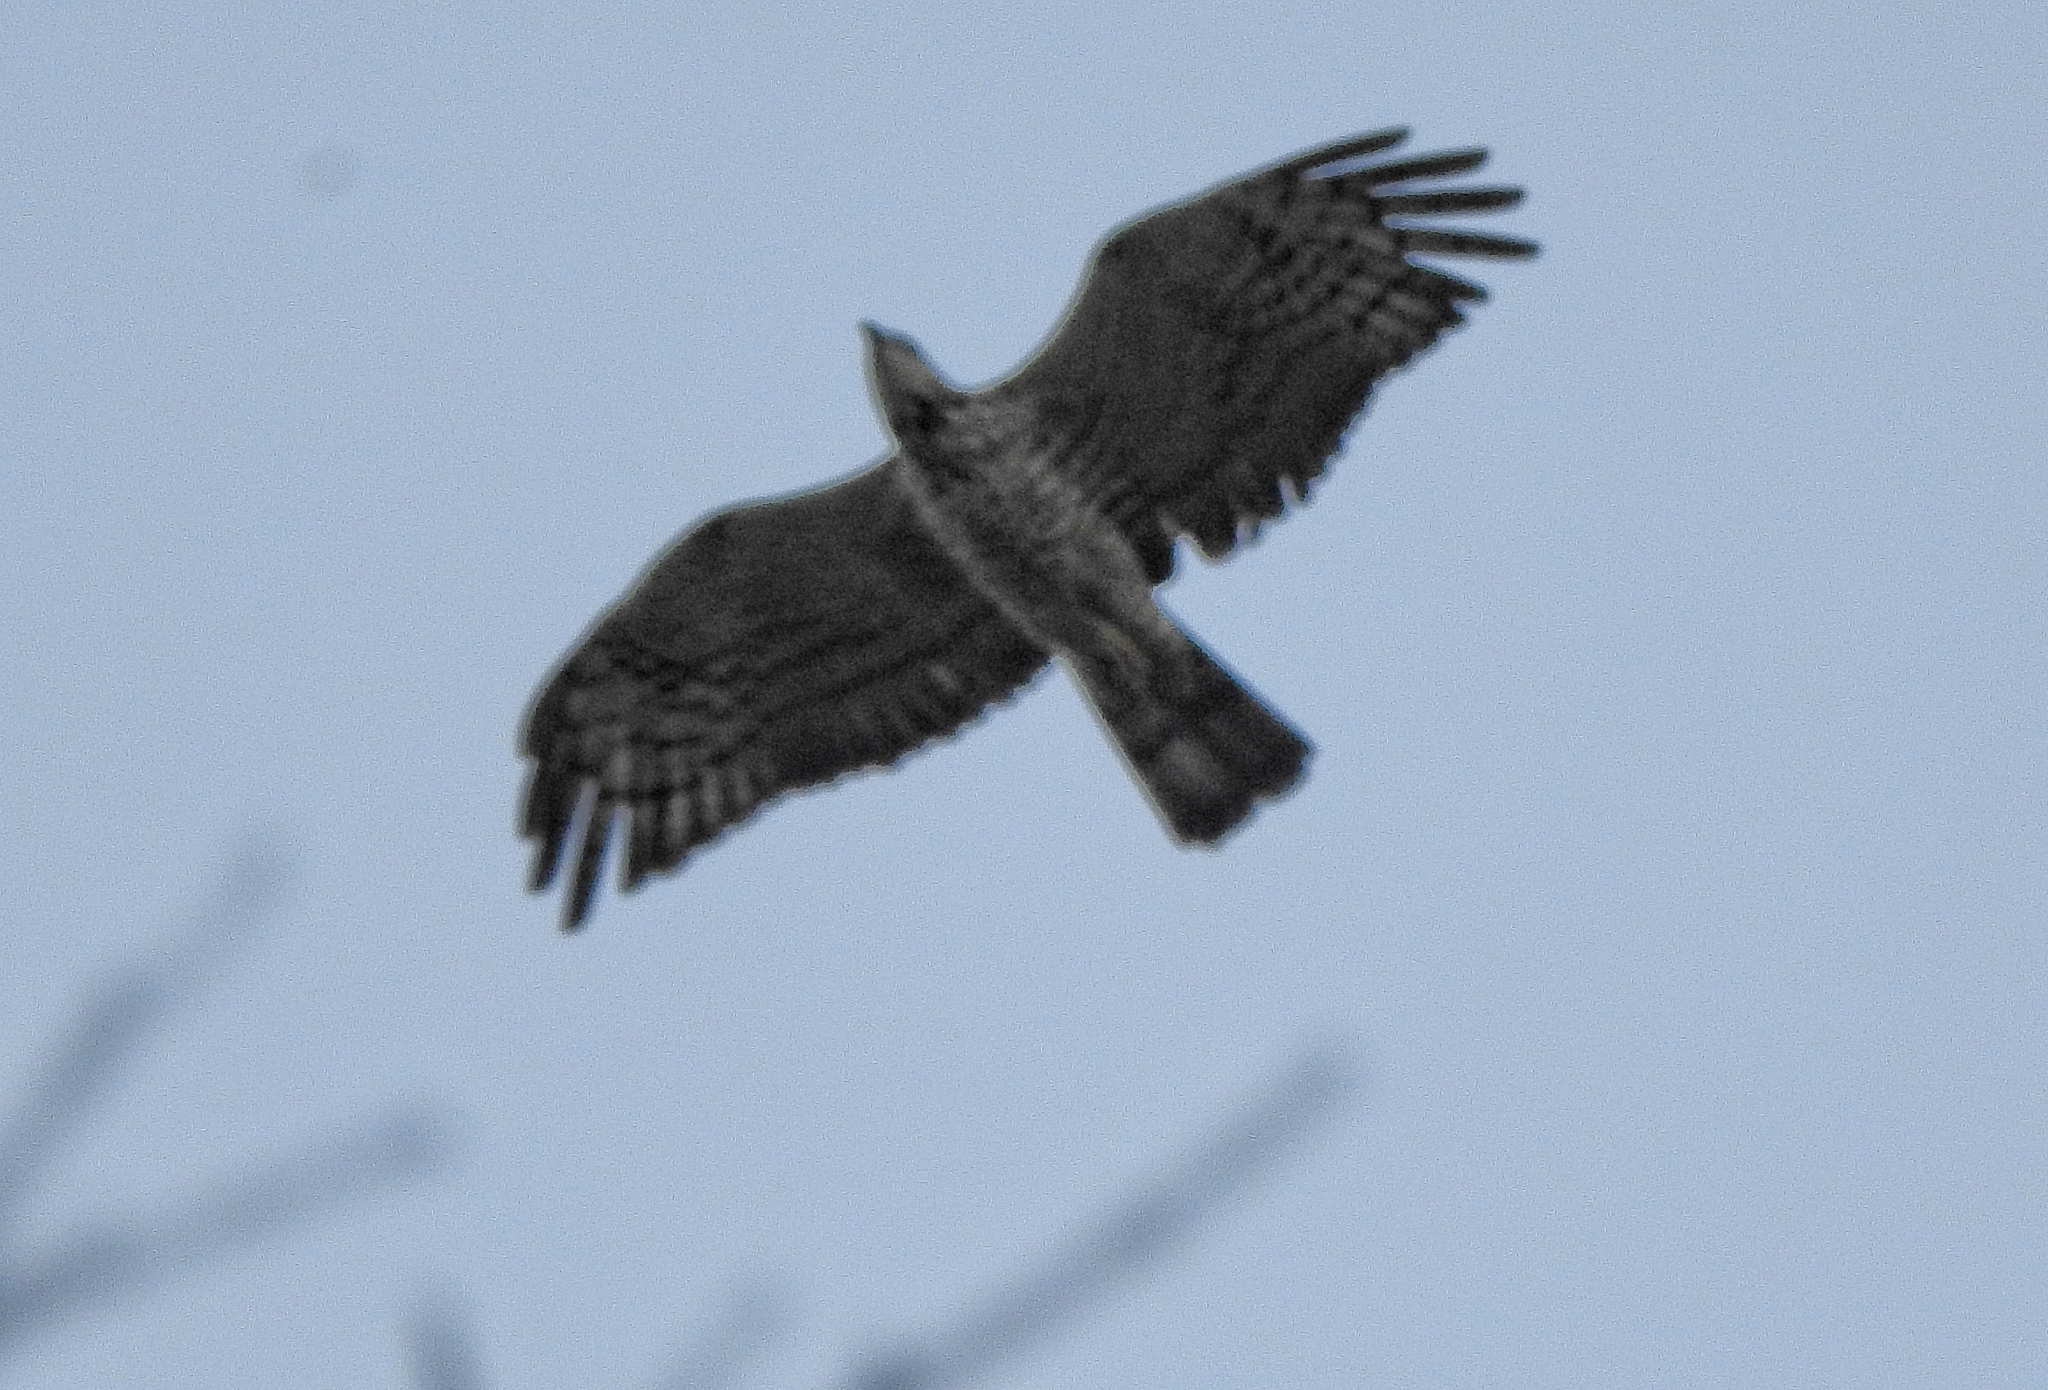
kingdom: Animalia
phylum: Chordata
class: Aves
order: Accipitriformes
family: Accipitridae
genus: Pernis
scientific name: Pernis ptilorhynchus
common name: Crested honey buzzard
